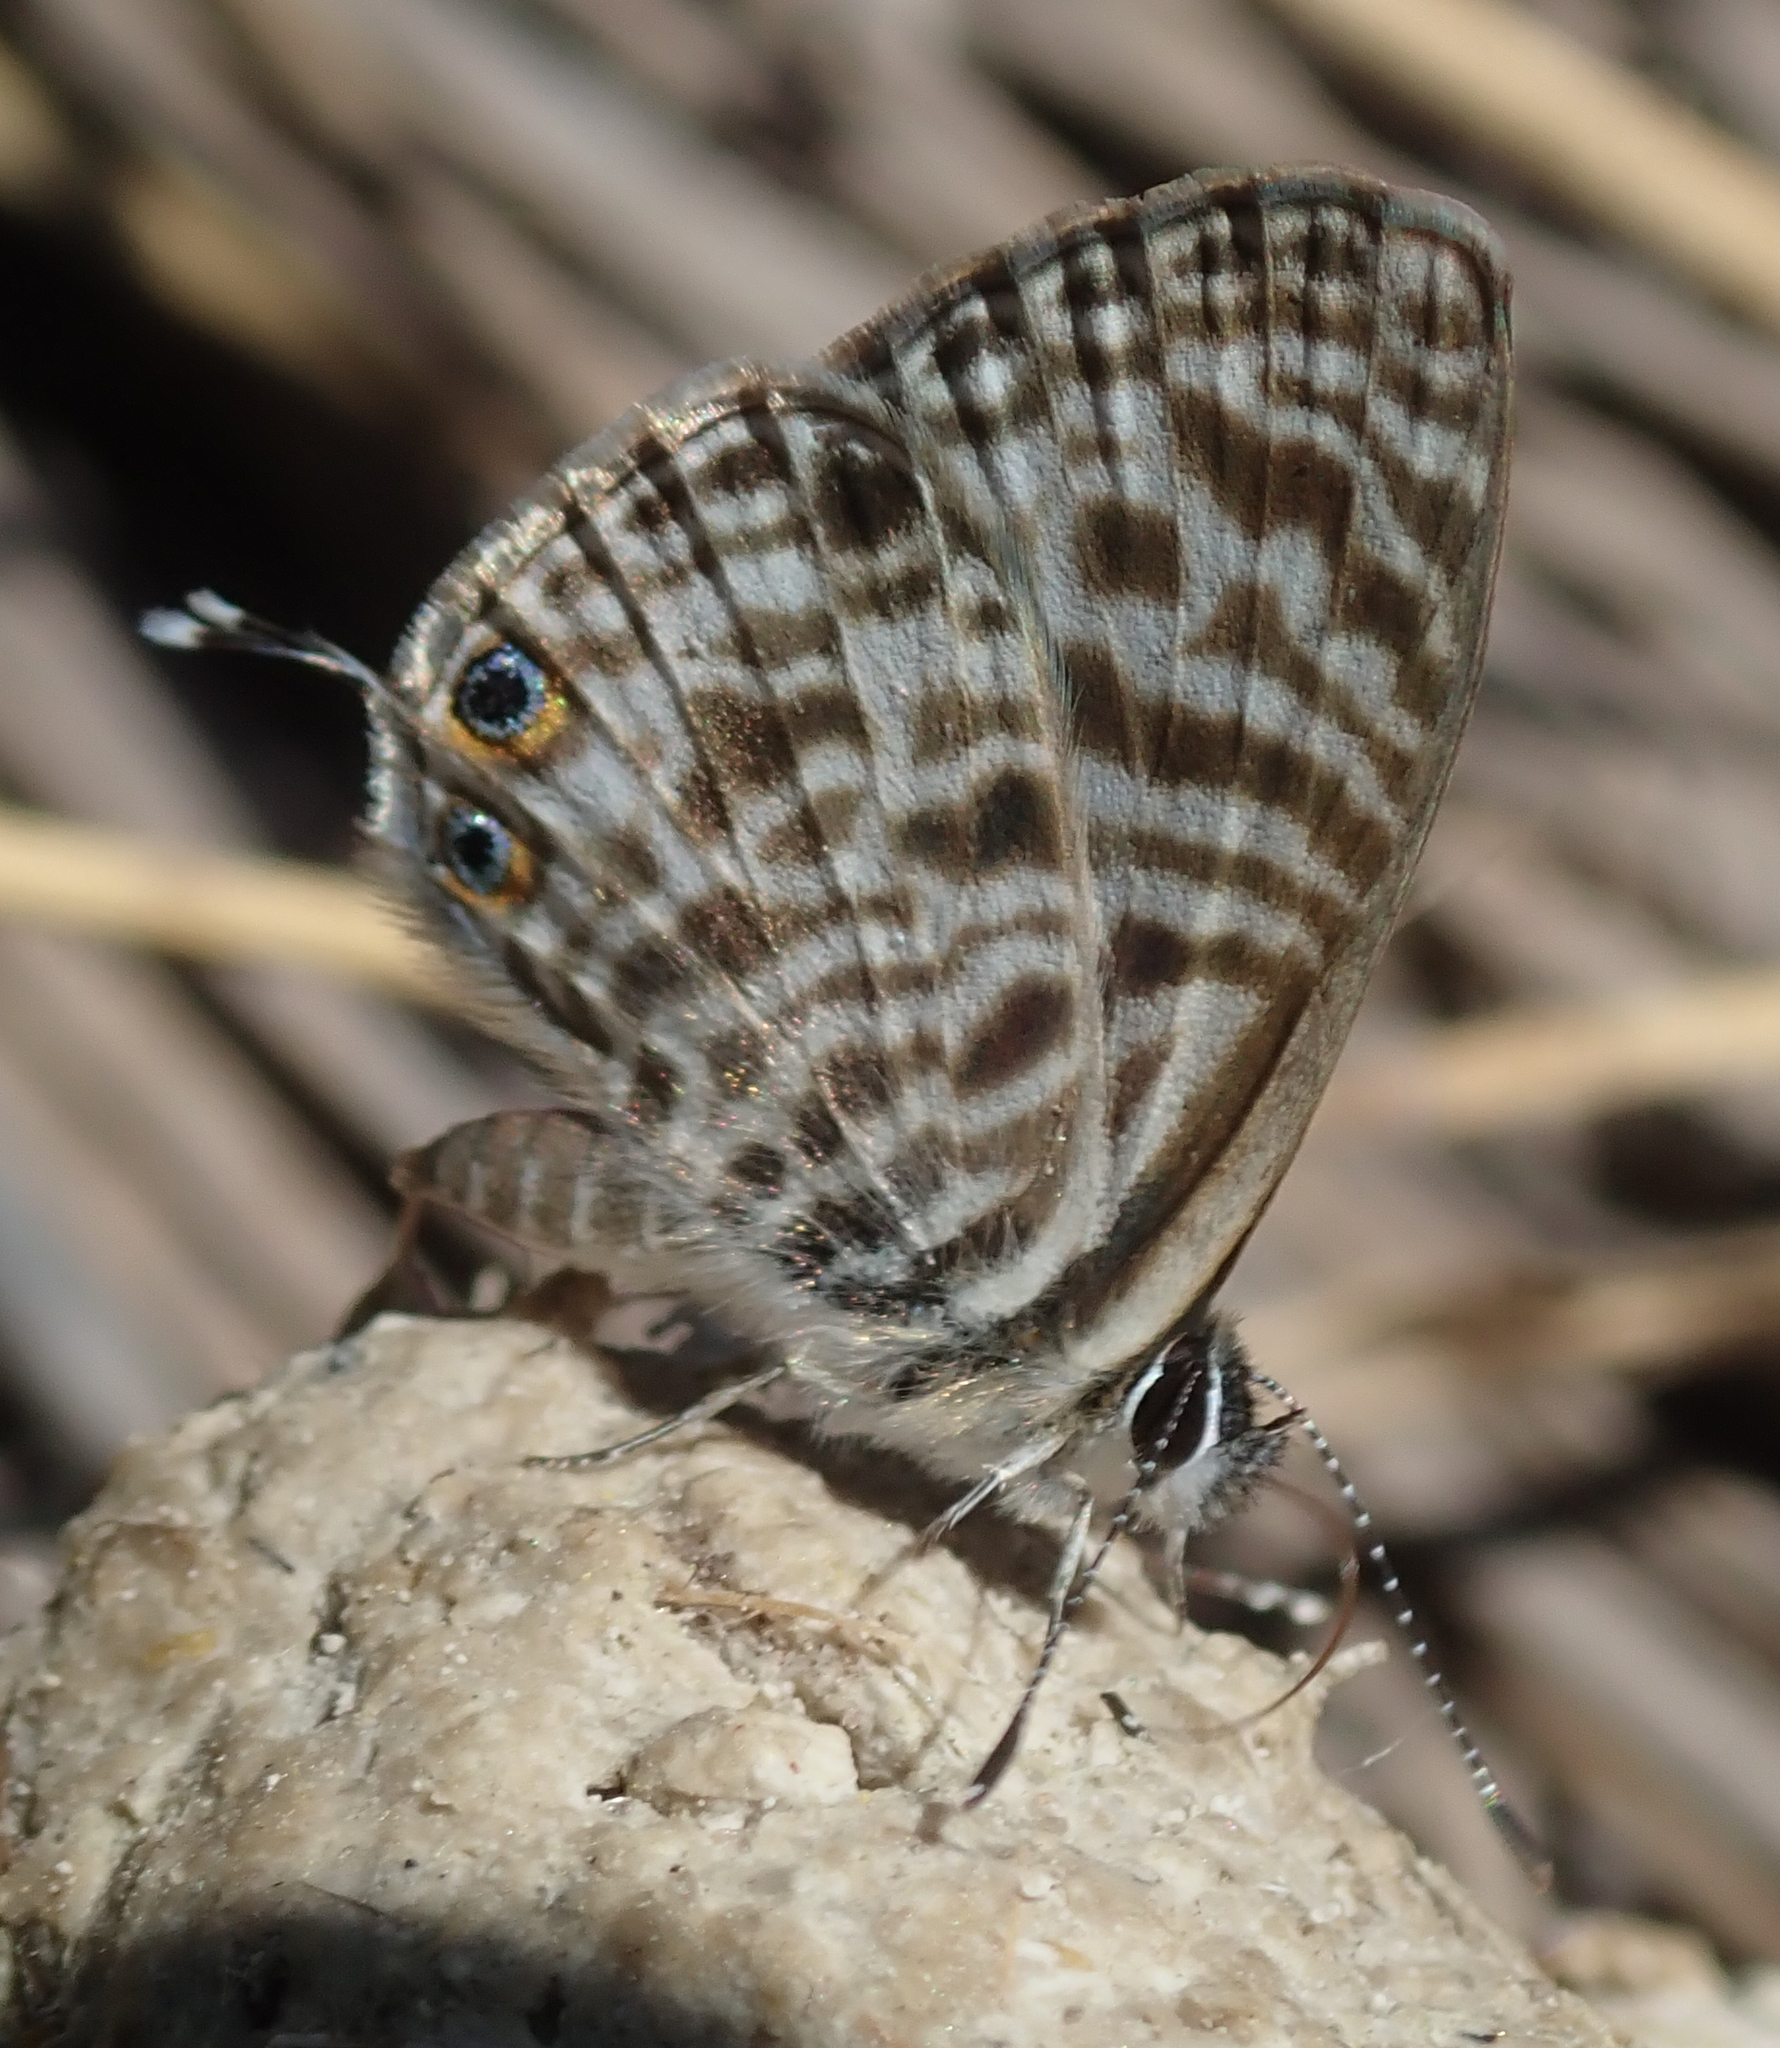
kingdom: Animalia
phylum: Arthropoda
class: Insecta
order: Lepidoptera
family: Lycaenidae
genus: Leptotes
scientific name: Leptotes
